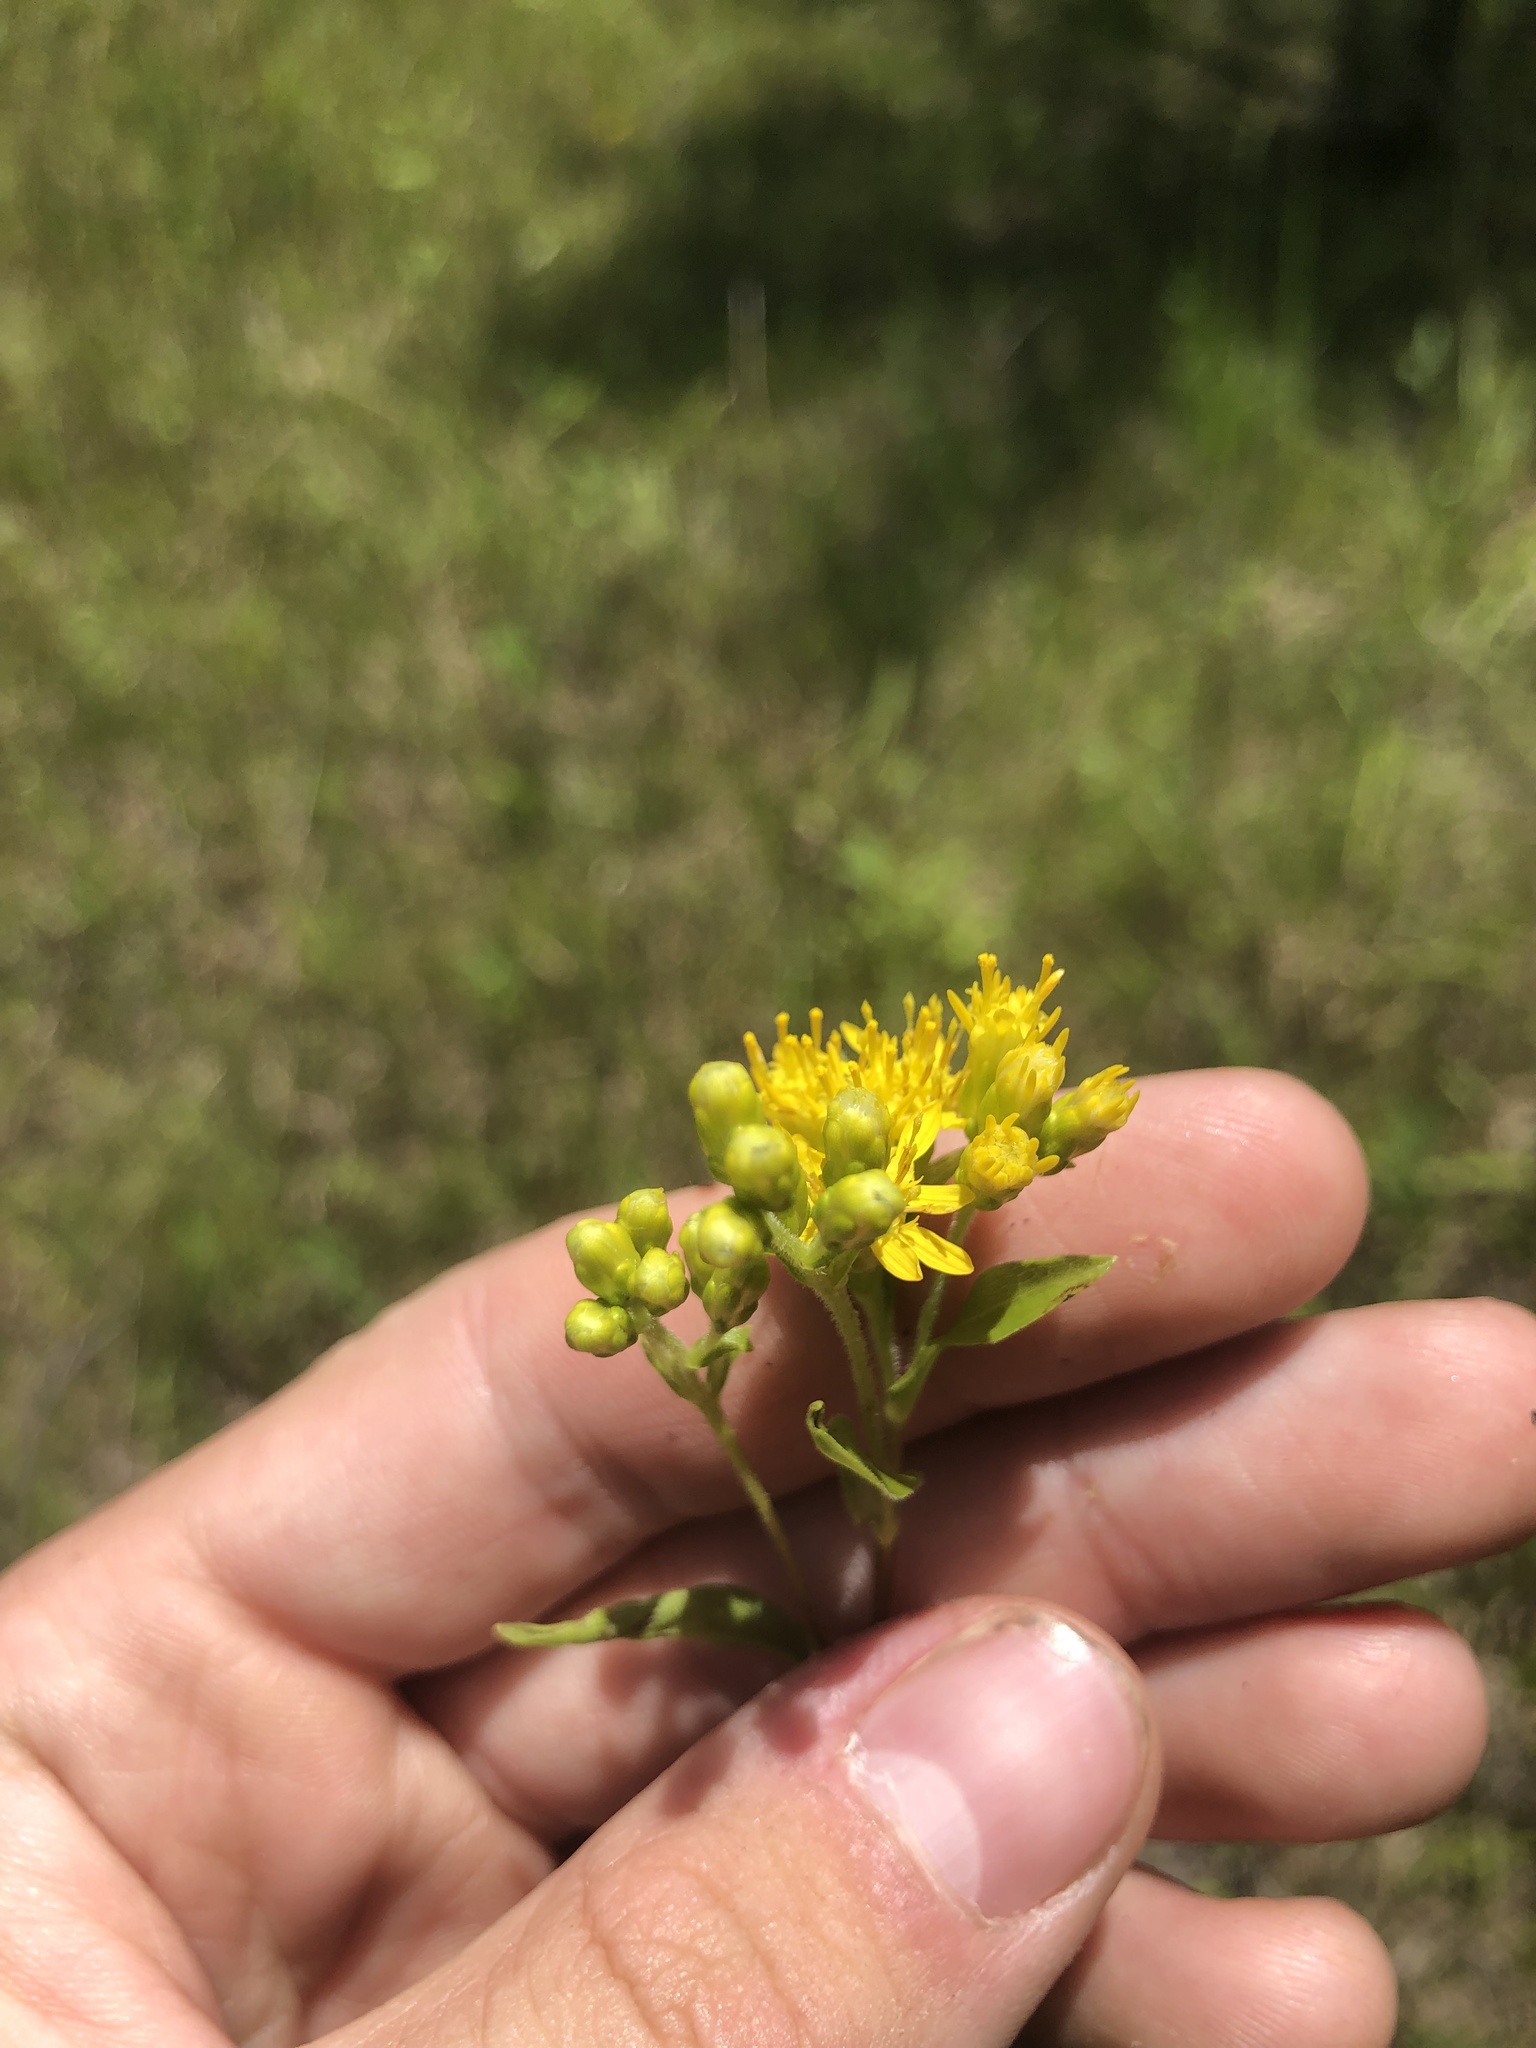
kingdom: Plantae
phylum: Tracheophyta
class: Magnoliopsida
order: Asterales
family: Asteraceae
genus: Solidago
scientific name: Solidago rigida
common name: Rigid goldenrod
